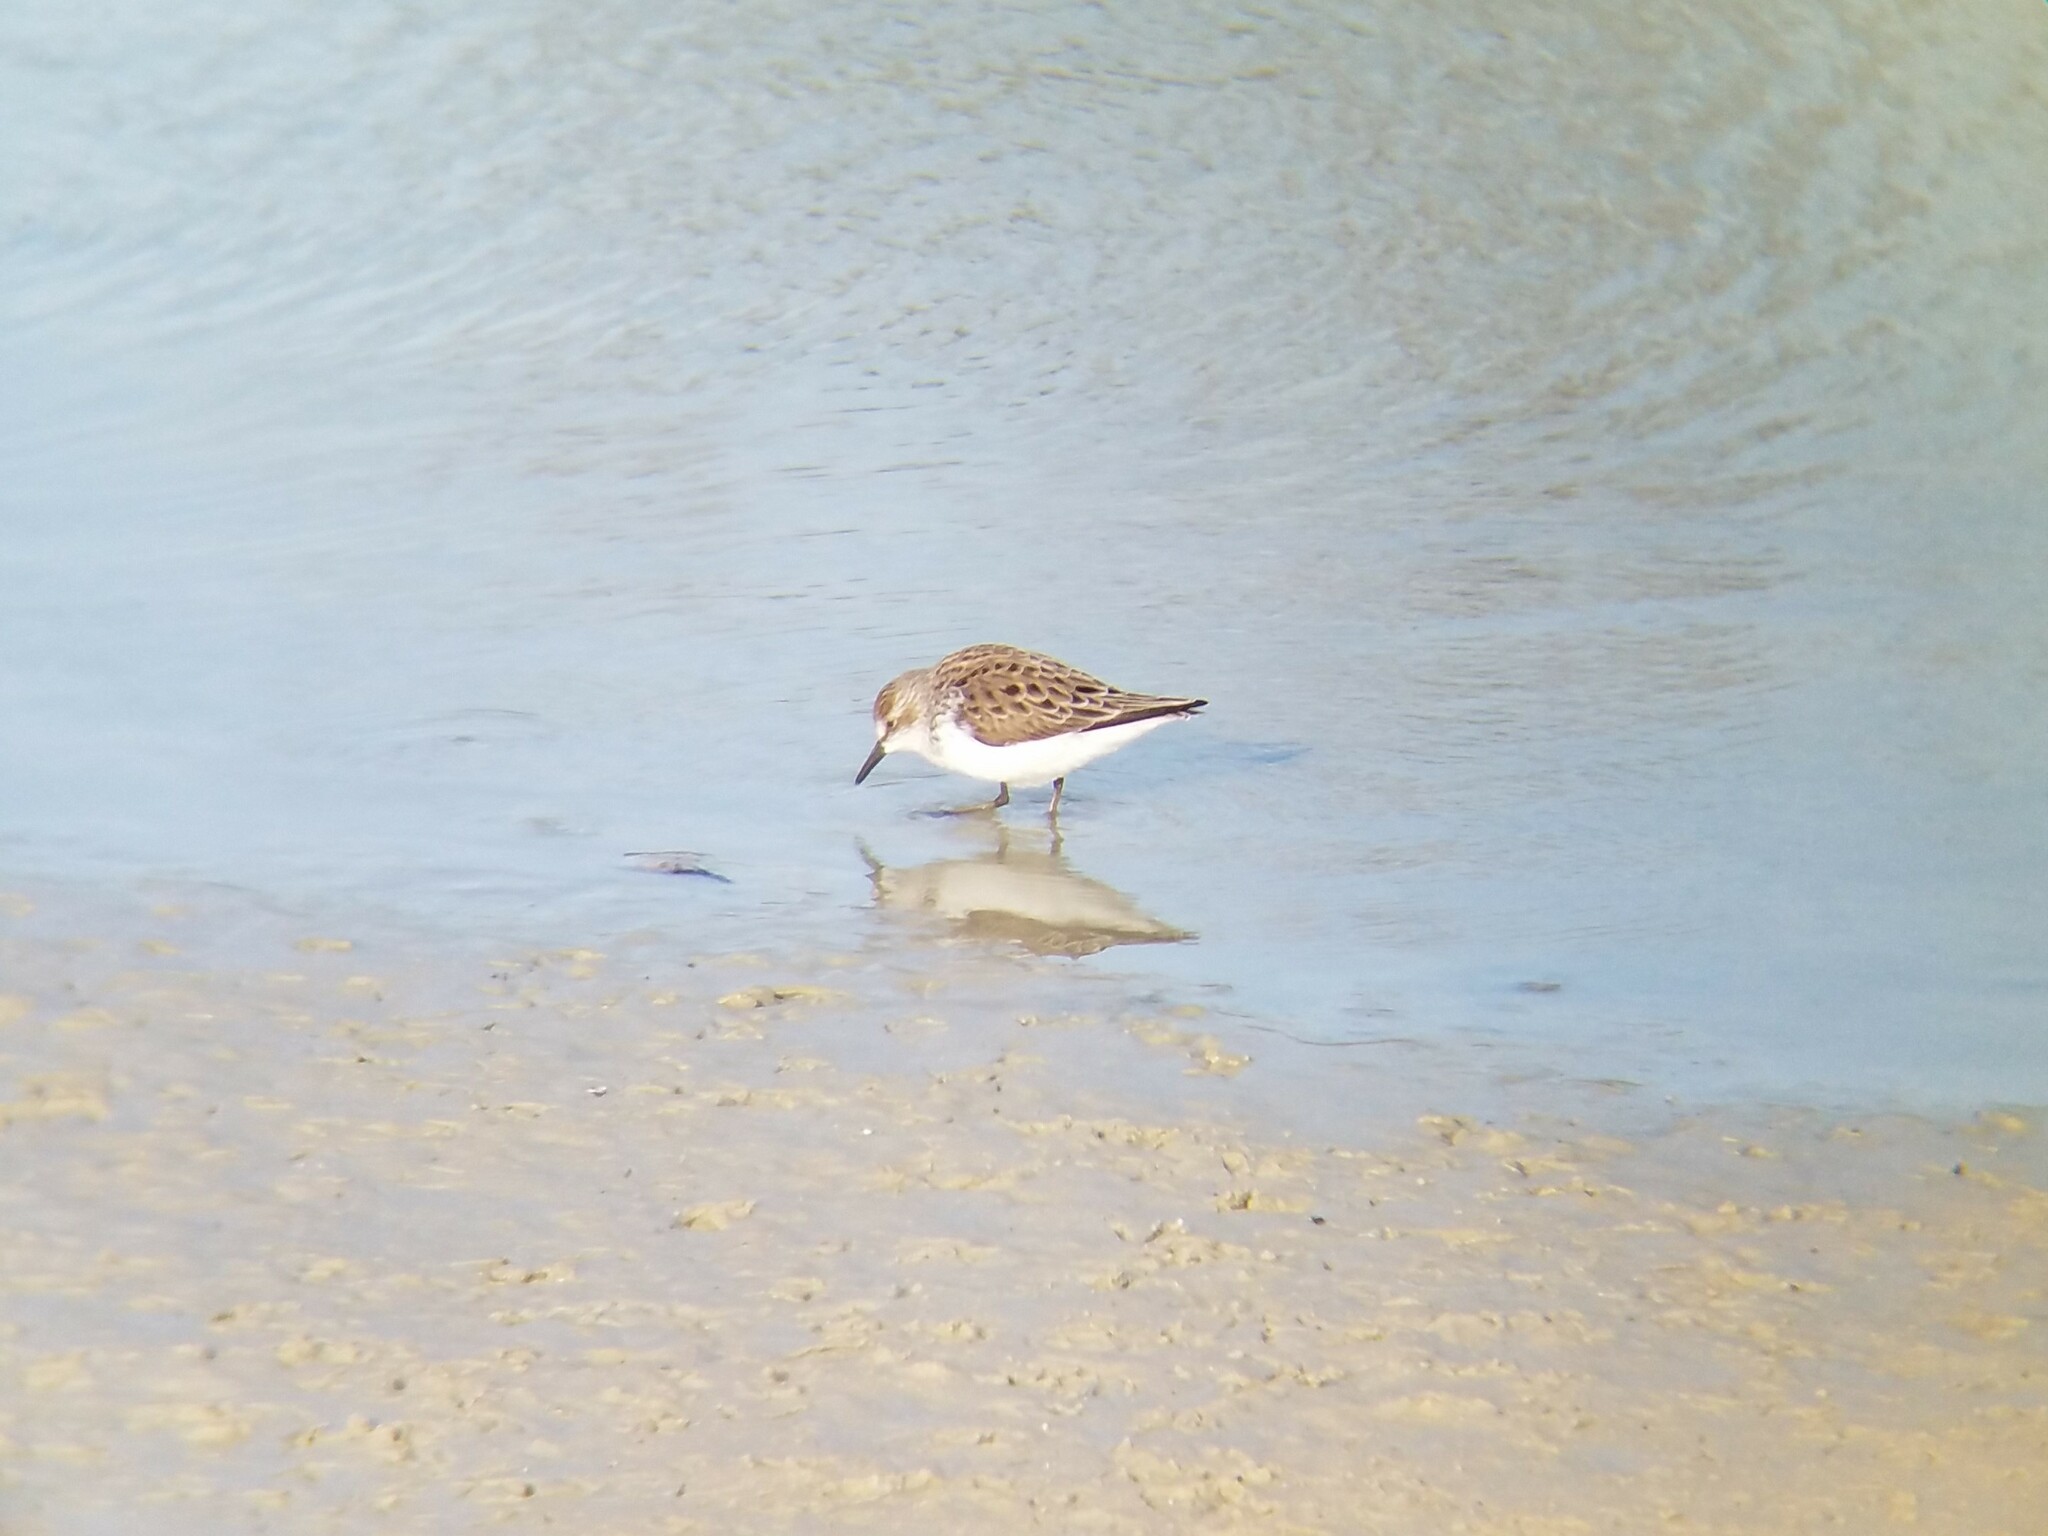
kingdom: Animalia
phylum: Chordata
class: Aves
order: Charadriiformes
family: Scolopacidae
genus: Calidris
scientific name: Calidris pusilla
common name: Semipalmated sandpiper
